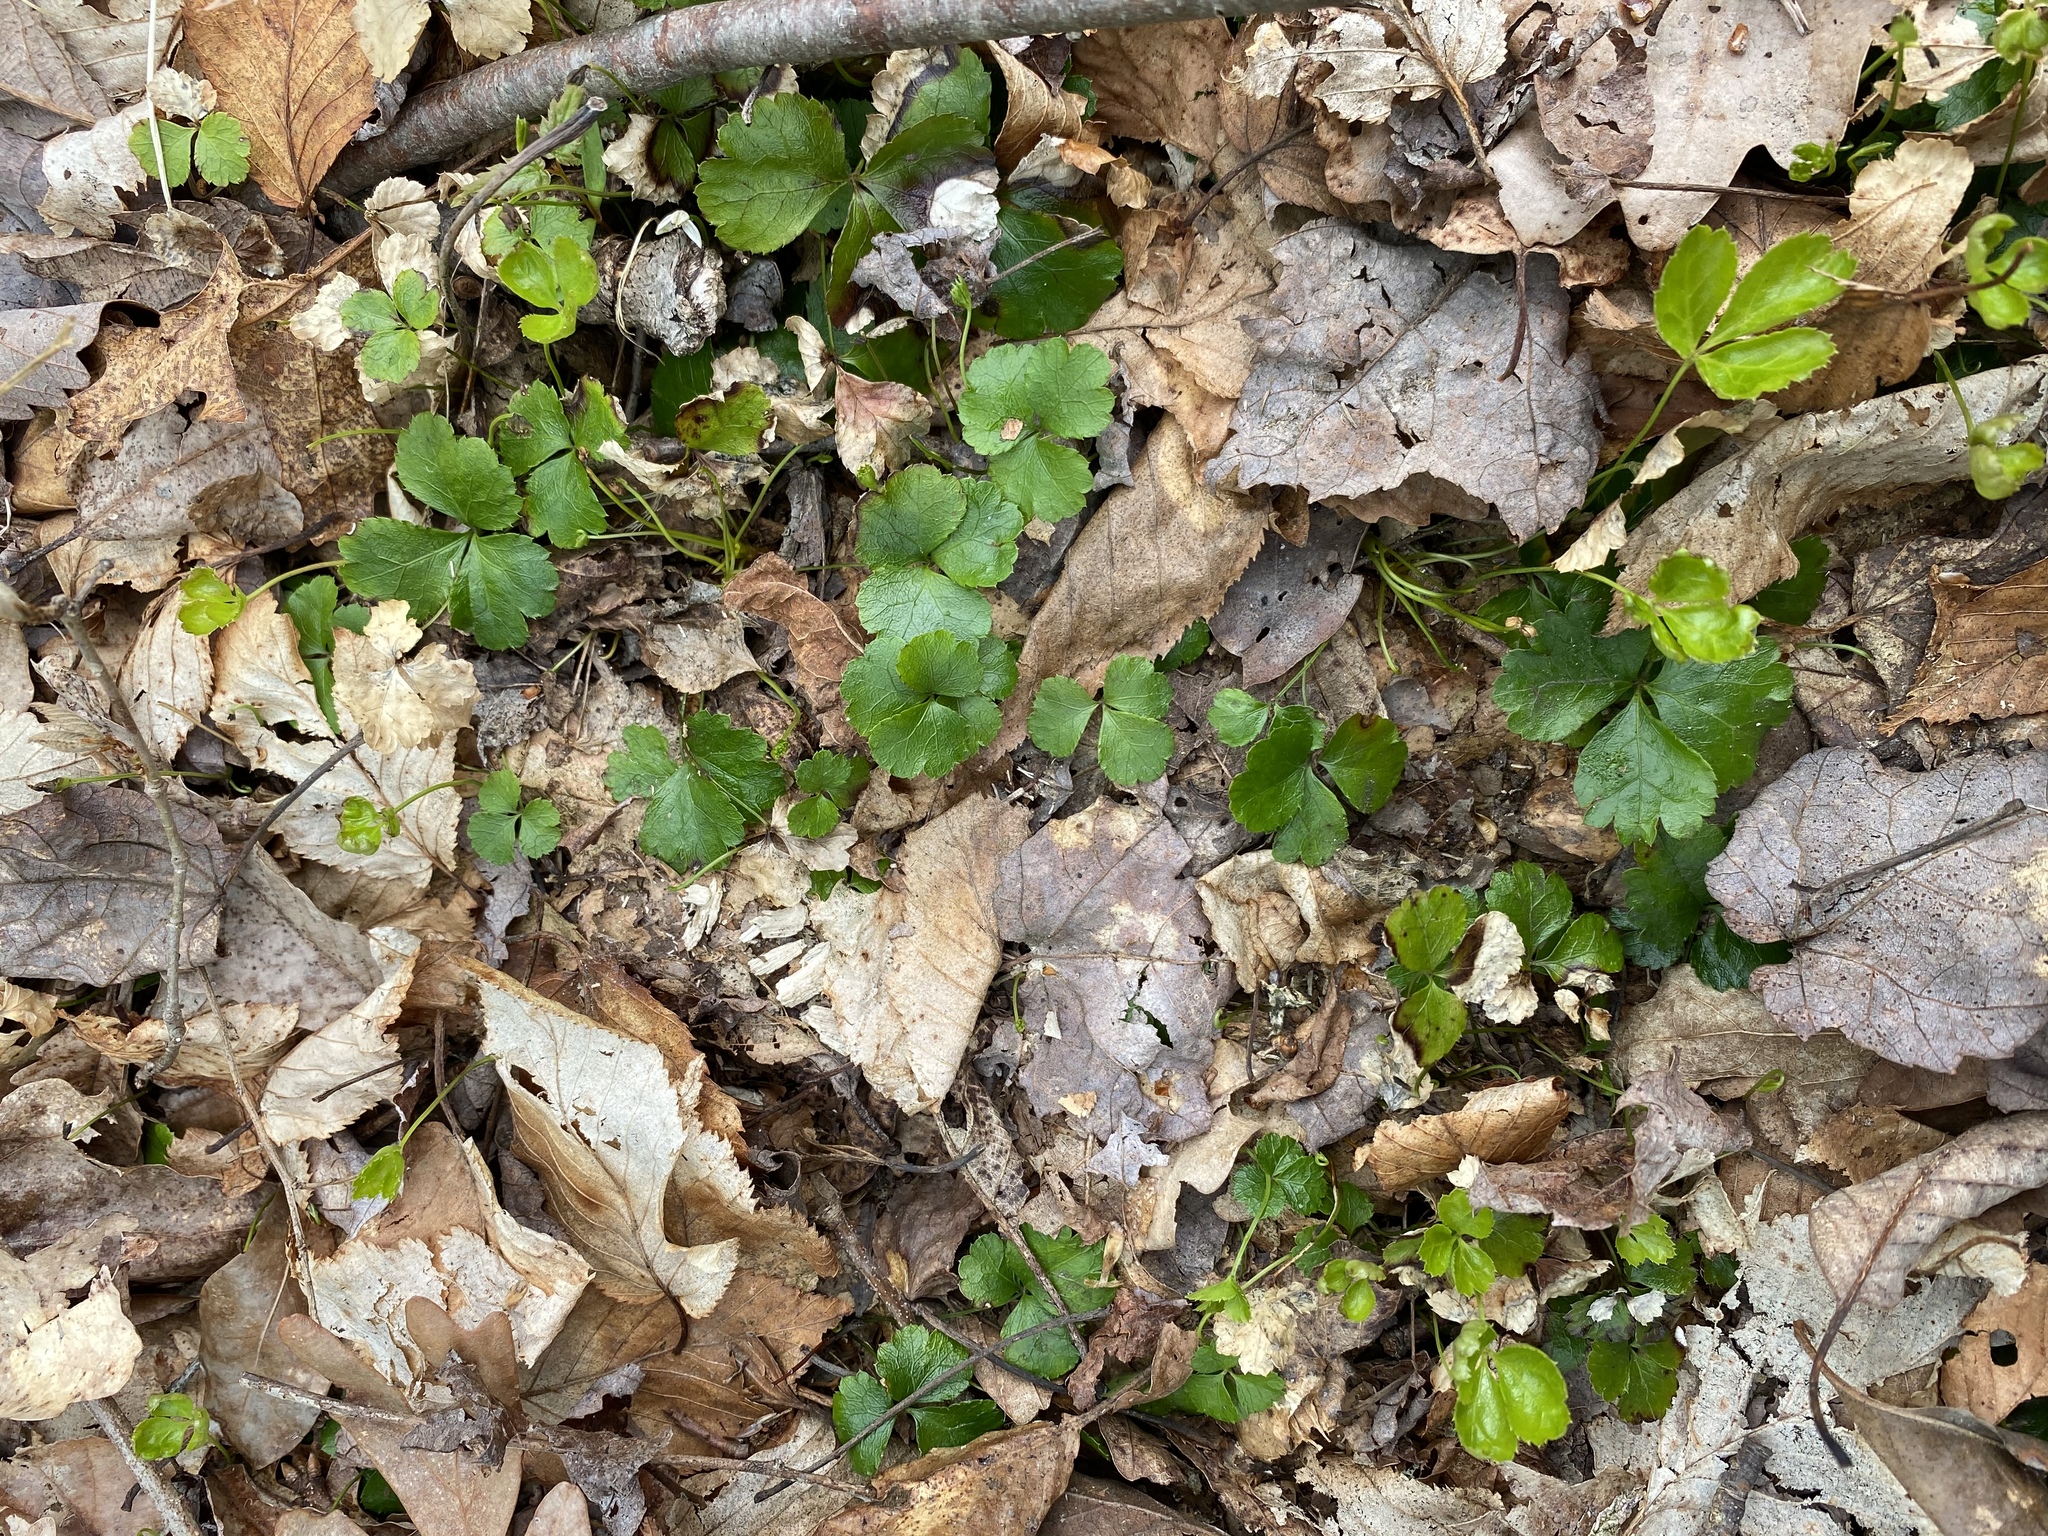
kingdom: Plantae
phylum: Tracheophyta
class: Magnoliopsida
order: Ranunculales
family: Ranunculaceae
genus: Coptis
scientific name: Coptis trifolia
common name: Canker-root
